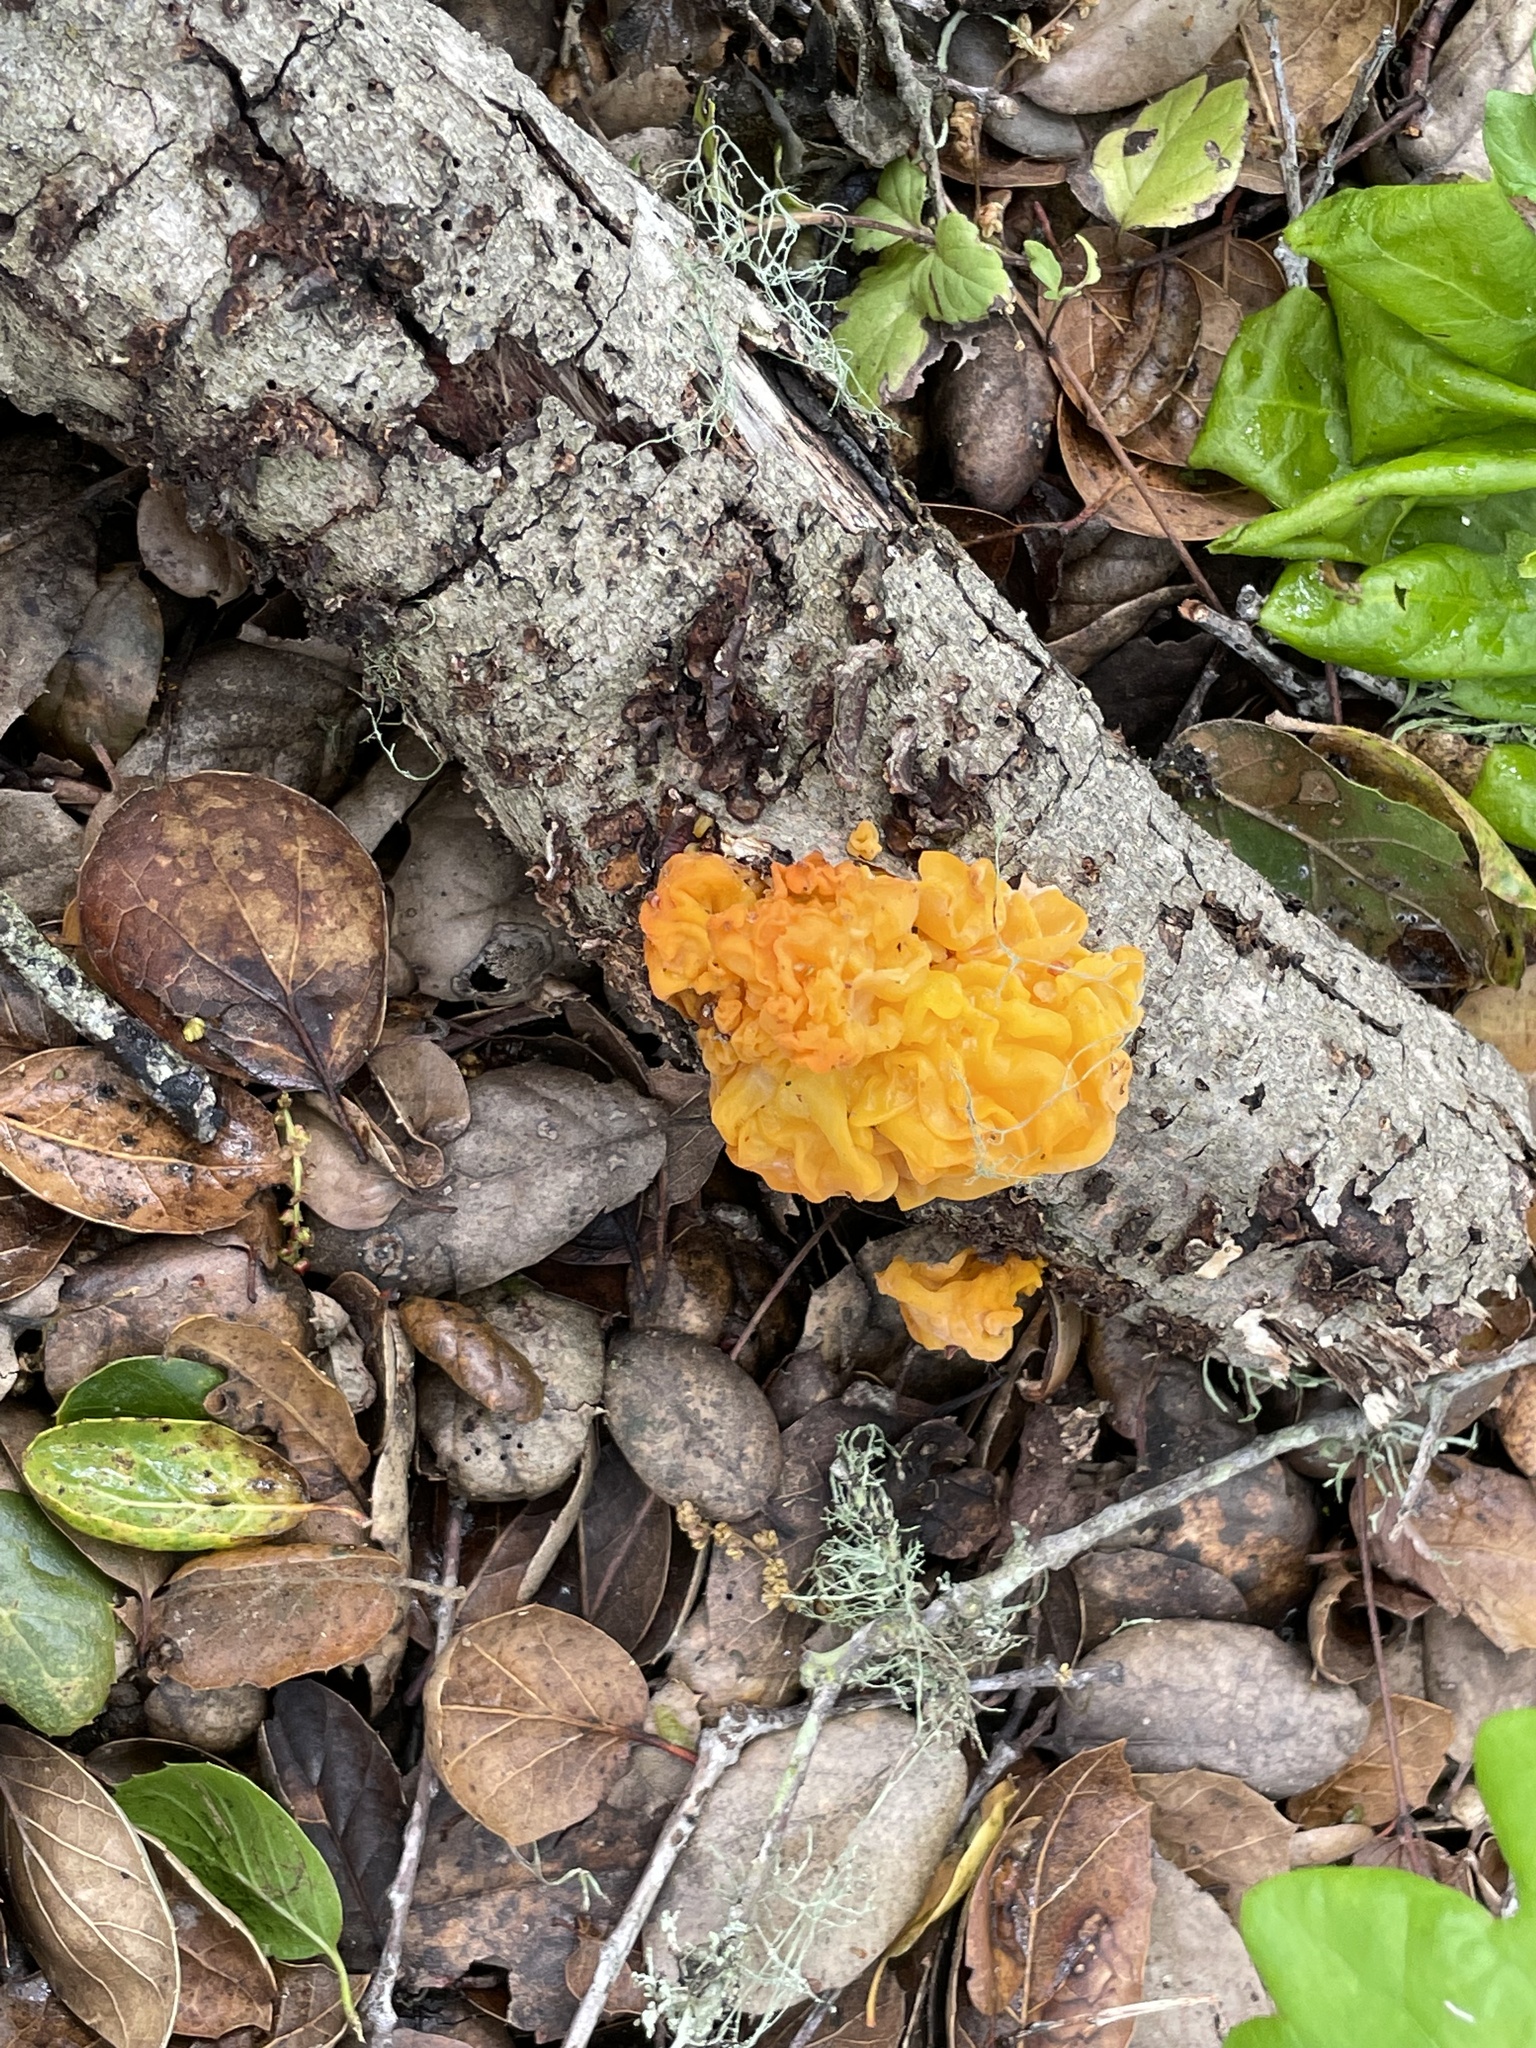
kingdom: Fungi
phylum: Basidiomycota
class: Tremellomycetes
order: Tremellales
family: Naemateliaceae
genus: Naematelia
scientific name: Naematelia aurantia
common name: Golden ear
